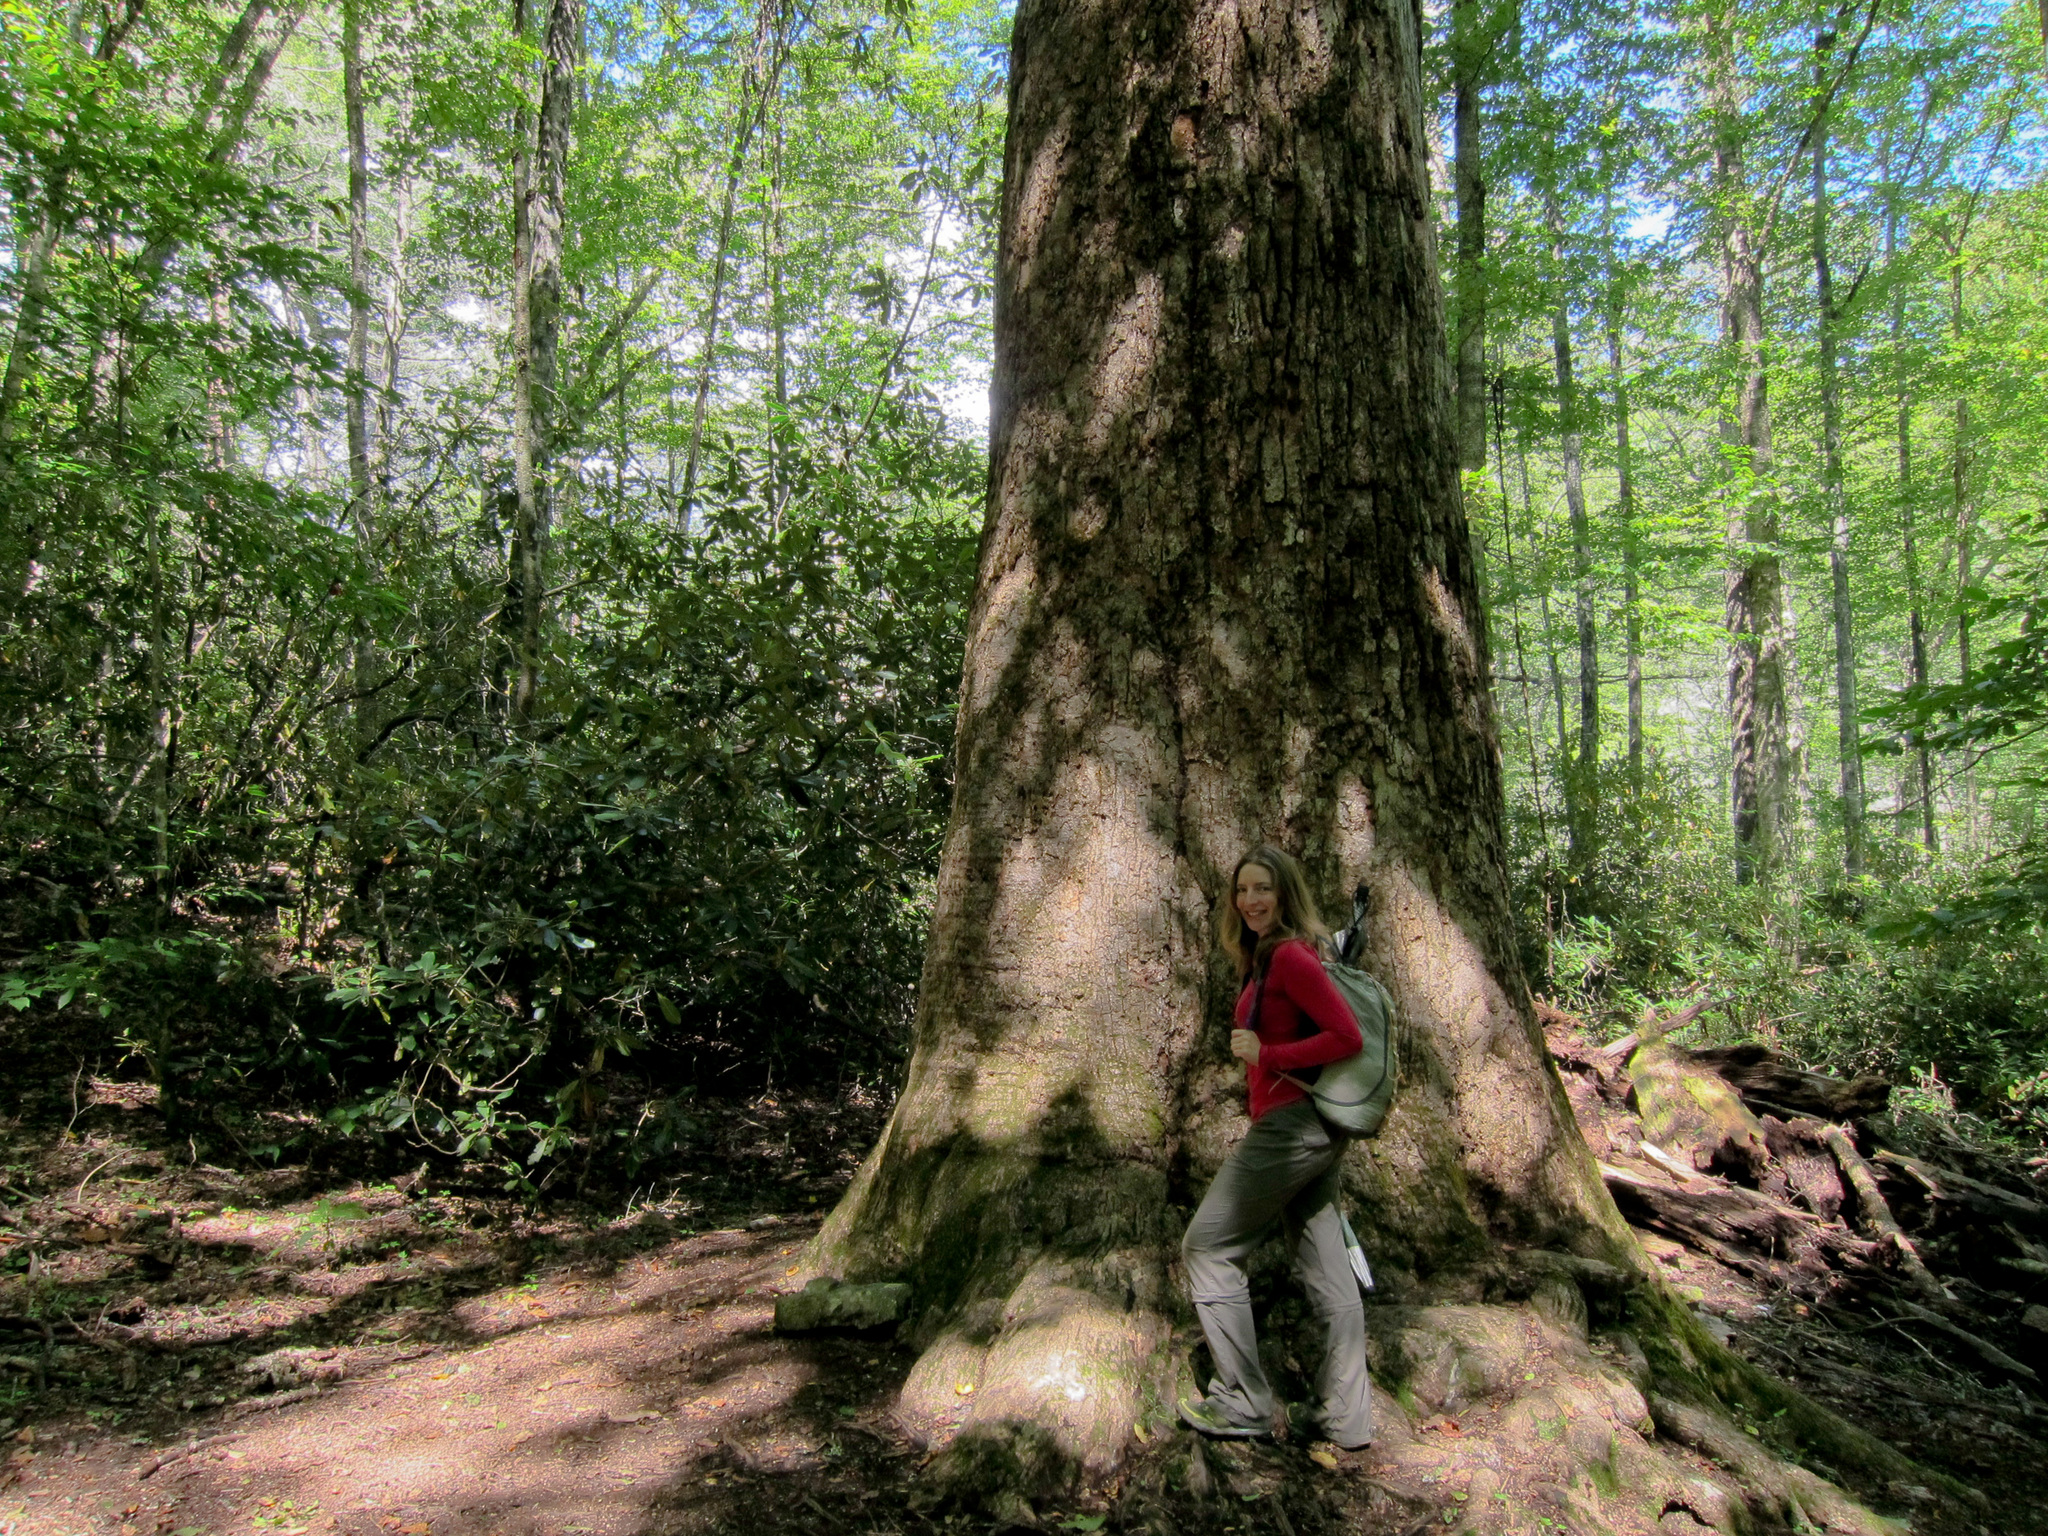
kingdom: Plantae
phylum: Tracheophyta
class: Magnoliopsida
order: Magnoliales
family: Magnoliaceae
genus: Liriodendron
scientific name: Liriodendron tulipifera
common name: Tulip tree
